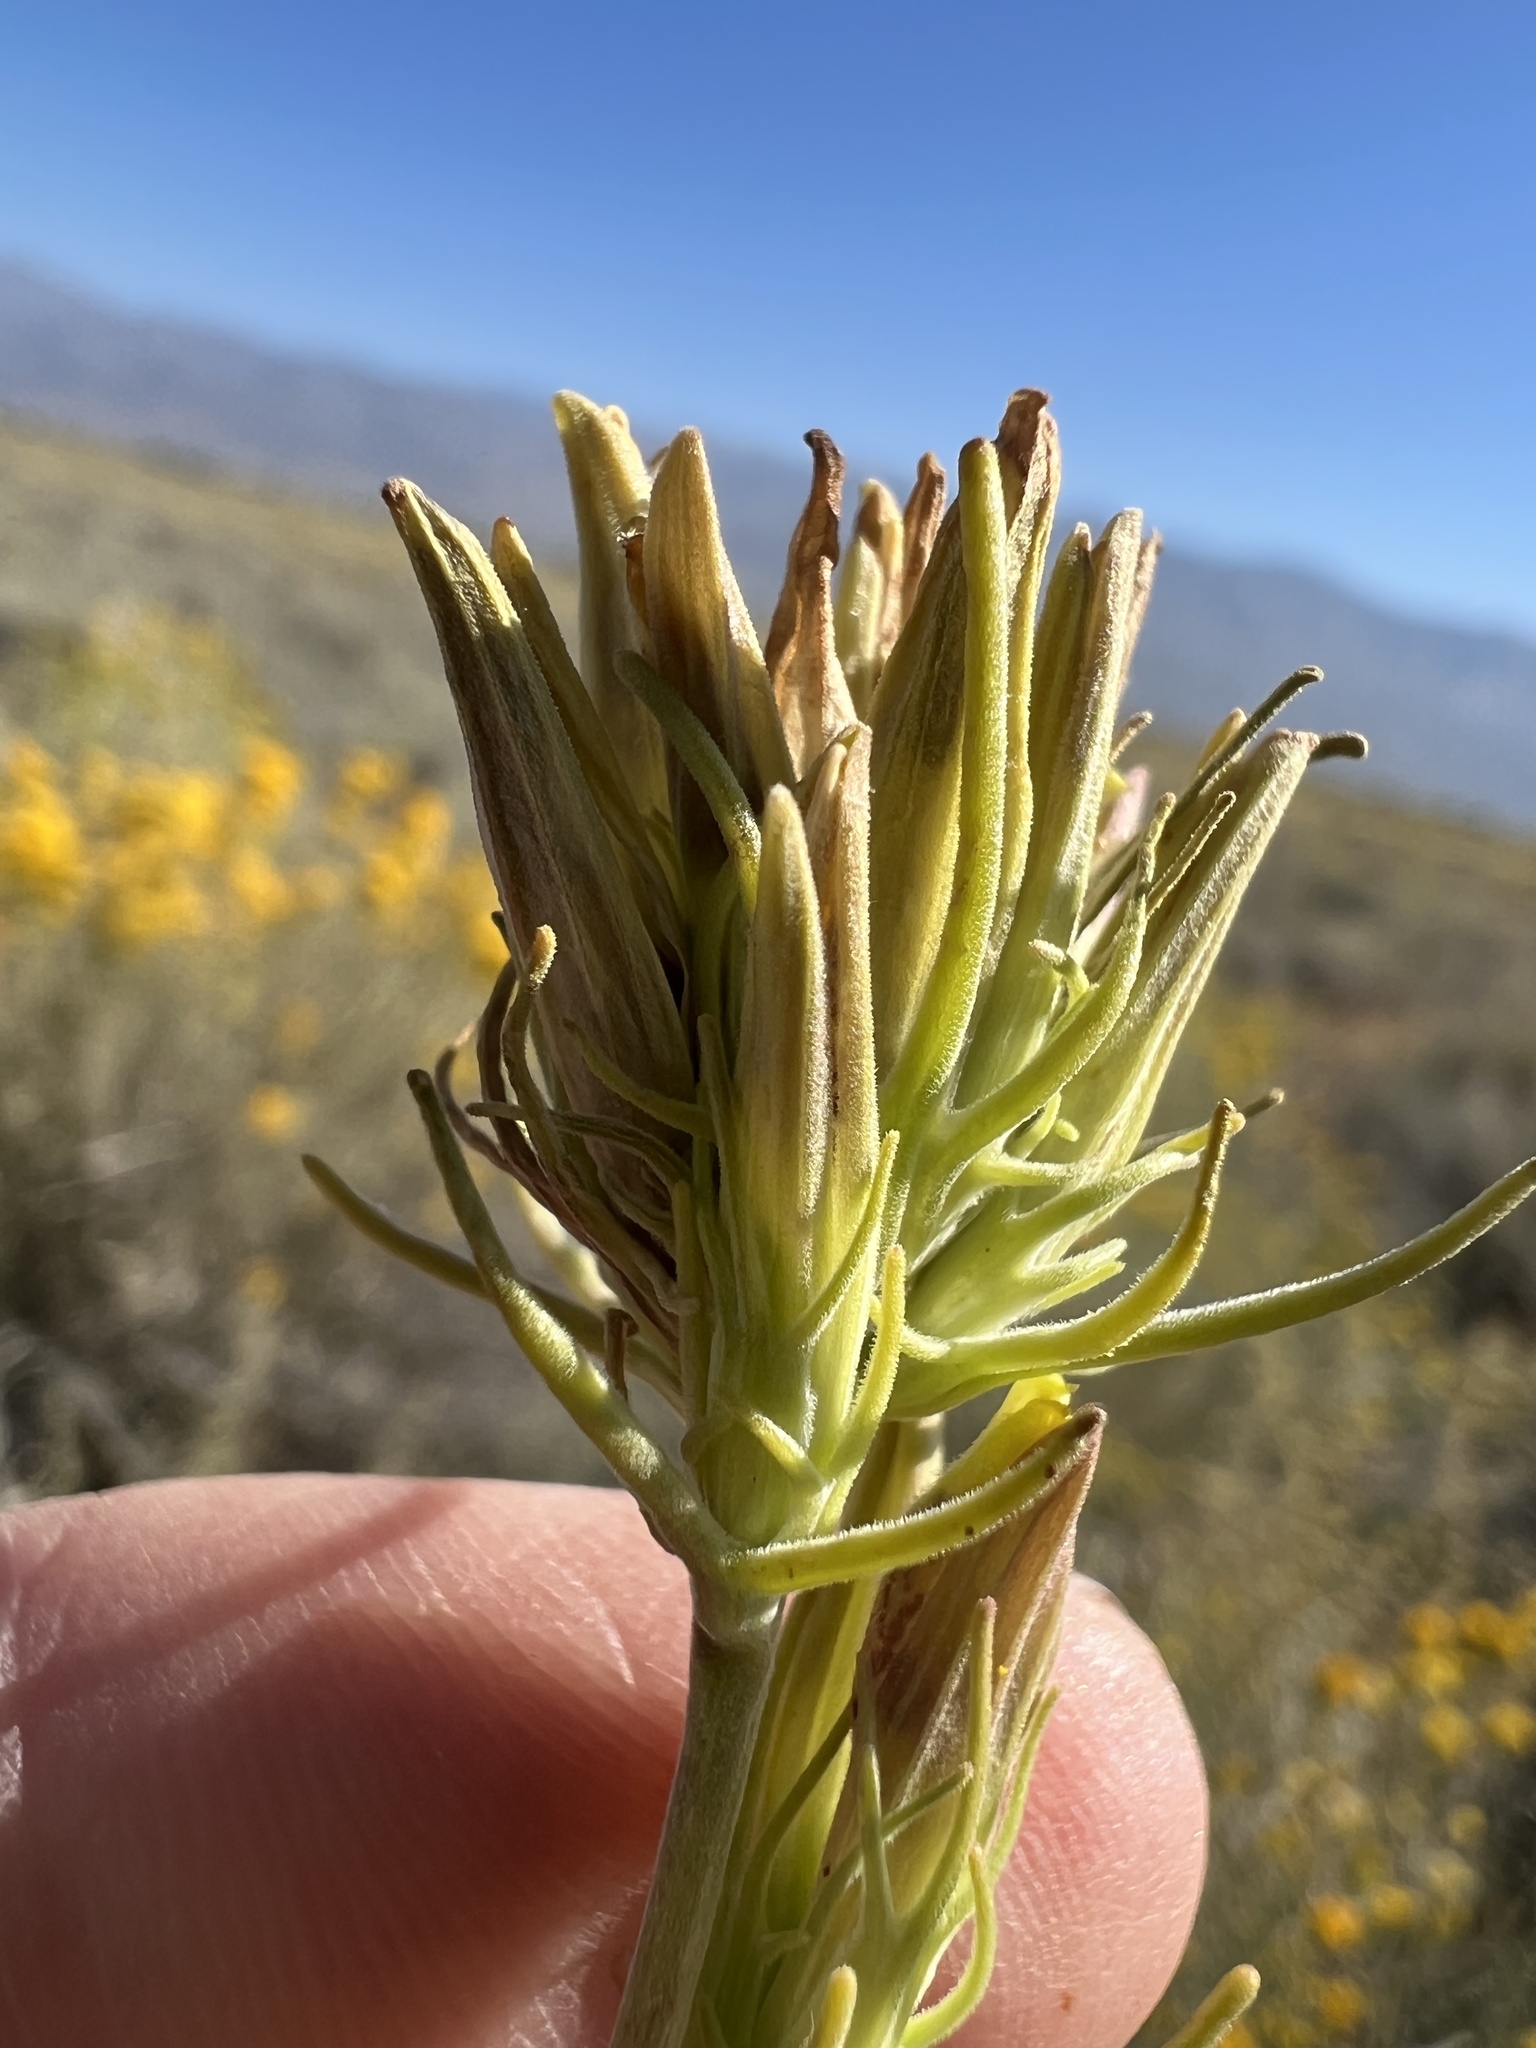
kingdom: Plantae
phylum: Tracheophyta
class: Magnoliopsida
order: Lamiales
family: Orobanchaceae
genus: Cordylanthus
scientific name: Cordylanthus ramosus
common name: Much-branched bird's-beak
